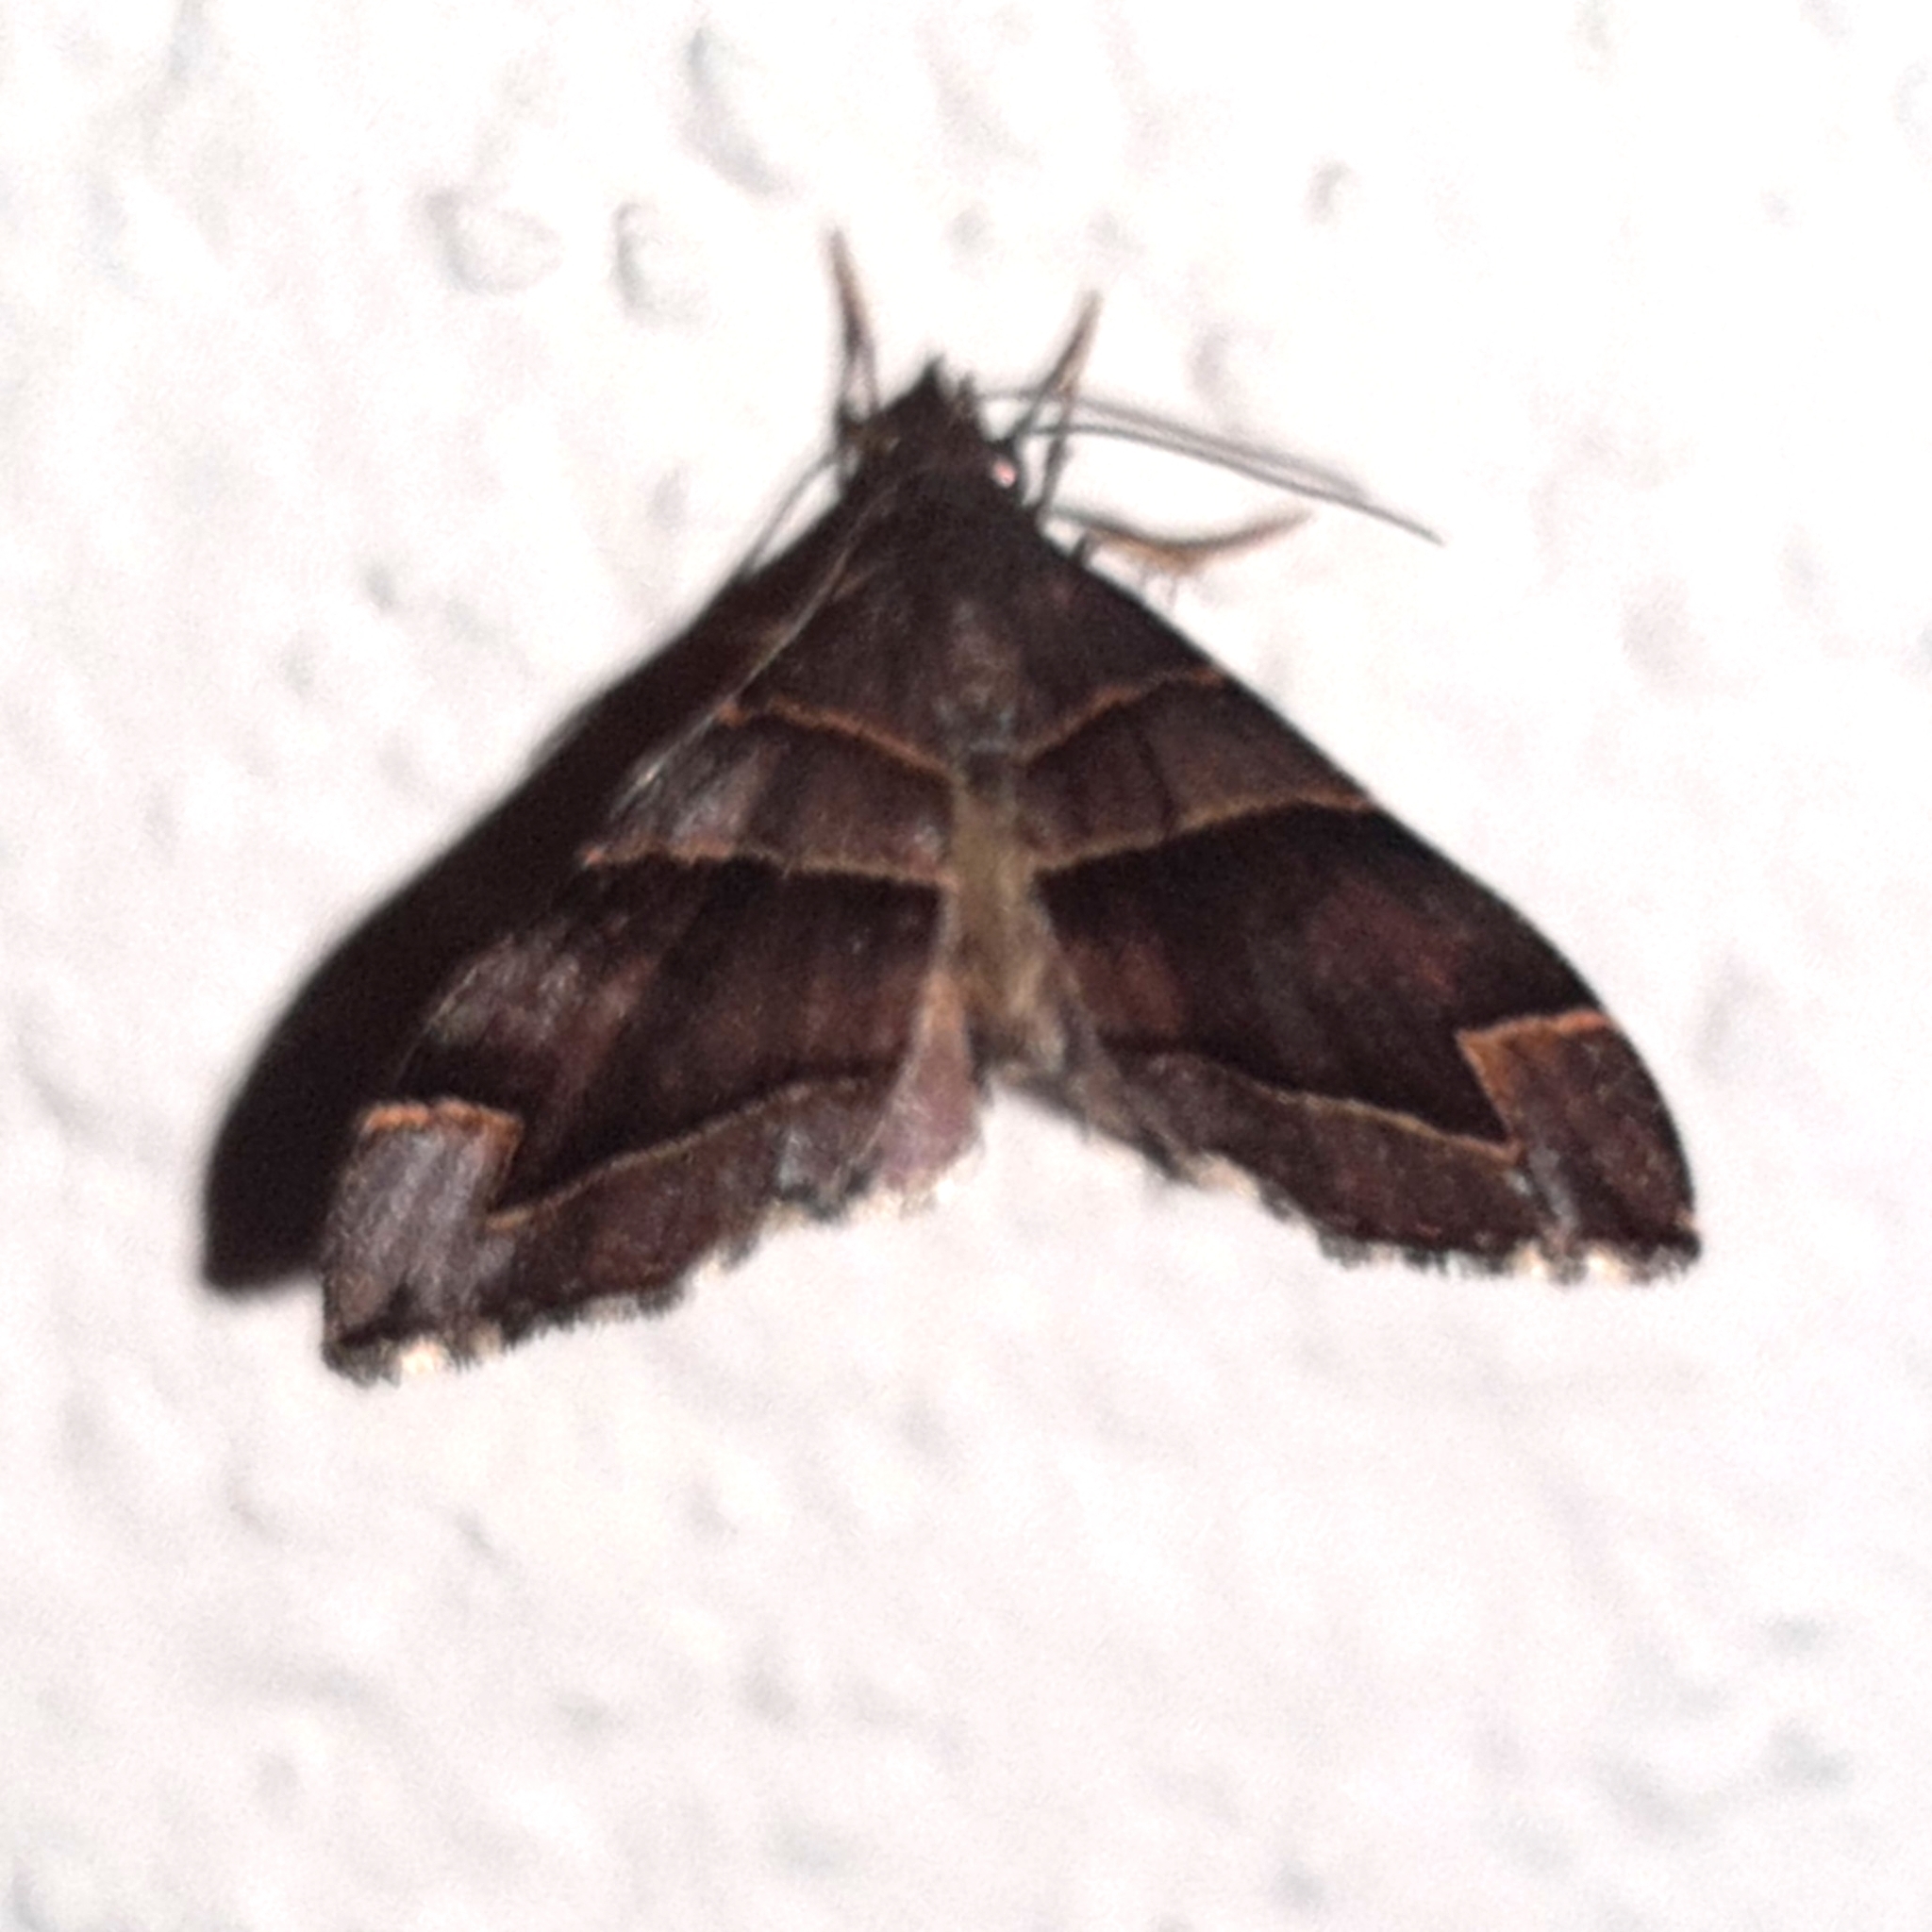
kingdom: Animalia
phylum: Arthropoda
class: Insecta
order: Lepidoptera
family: Geometridae
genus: Psaliodes
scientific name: Psaliodes cronia
